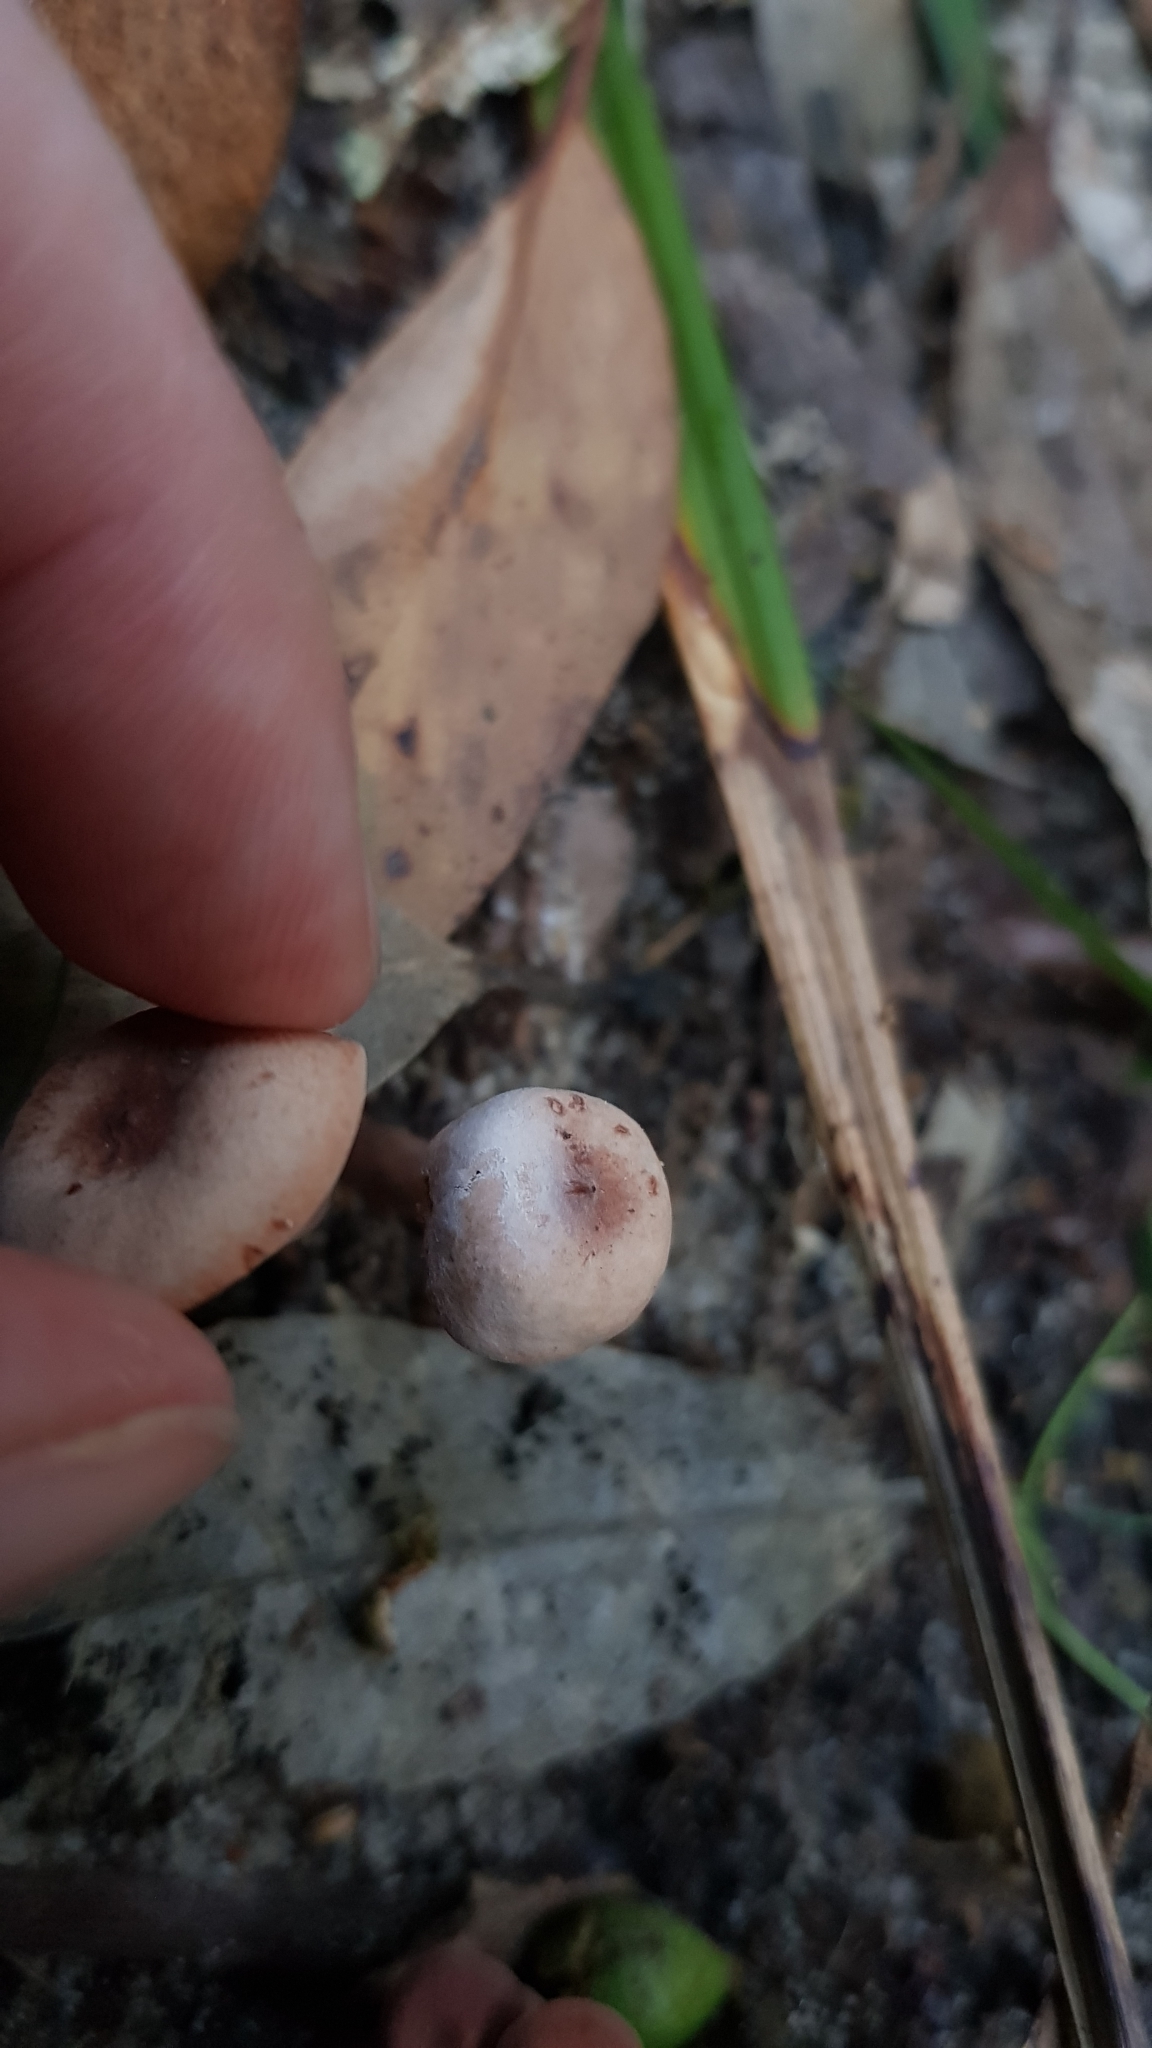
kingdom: Fungi
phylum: Basidiomycota
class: Agaricomycetes
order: Russulales
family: Russulaceae
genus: Lactarius
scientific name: Lactarius eucalypti
